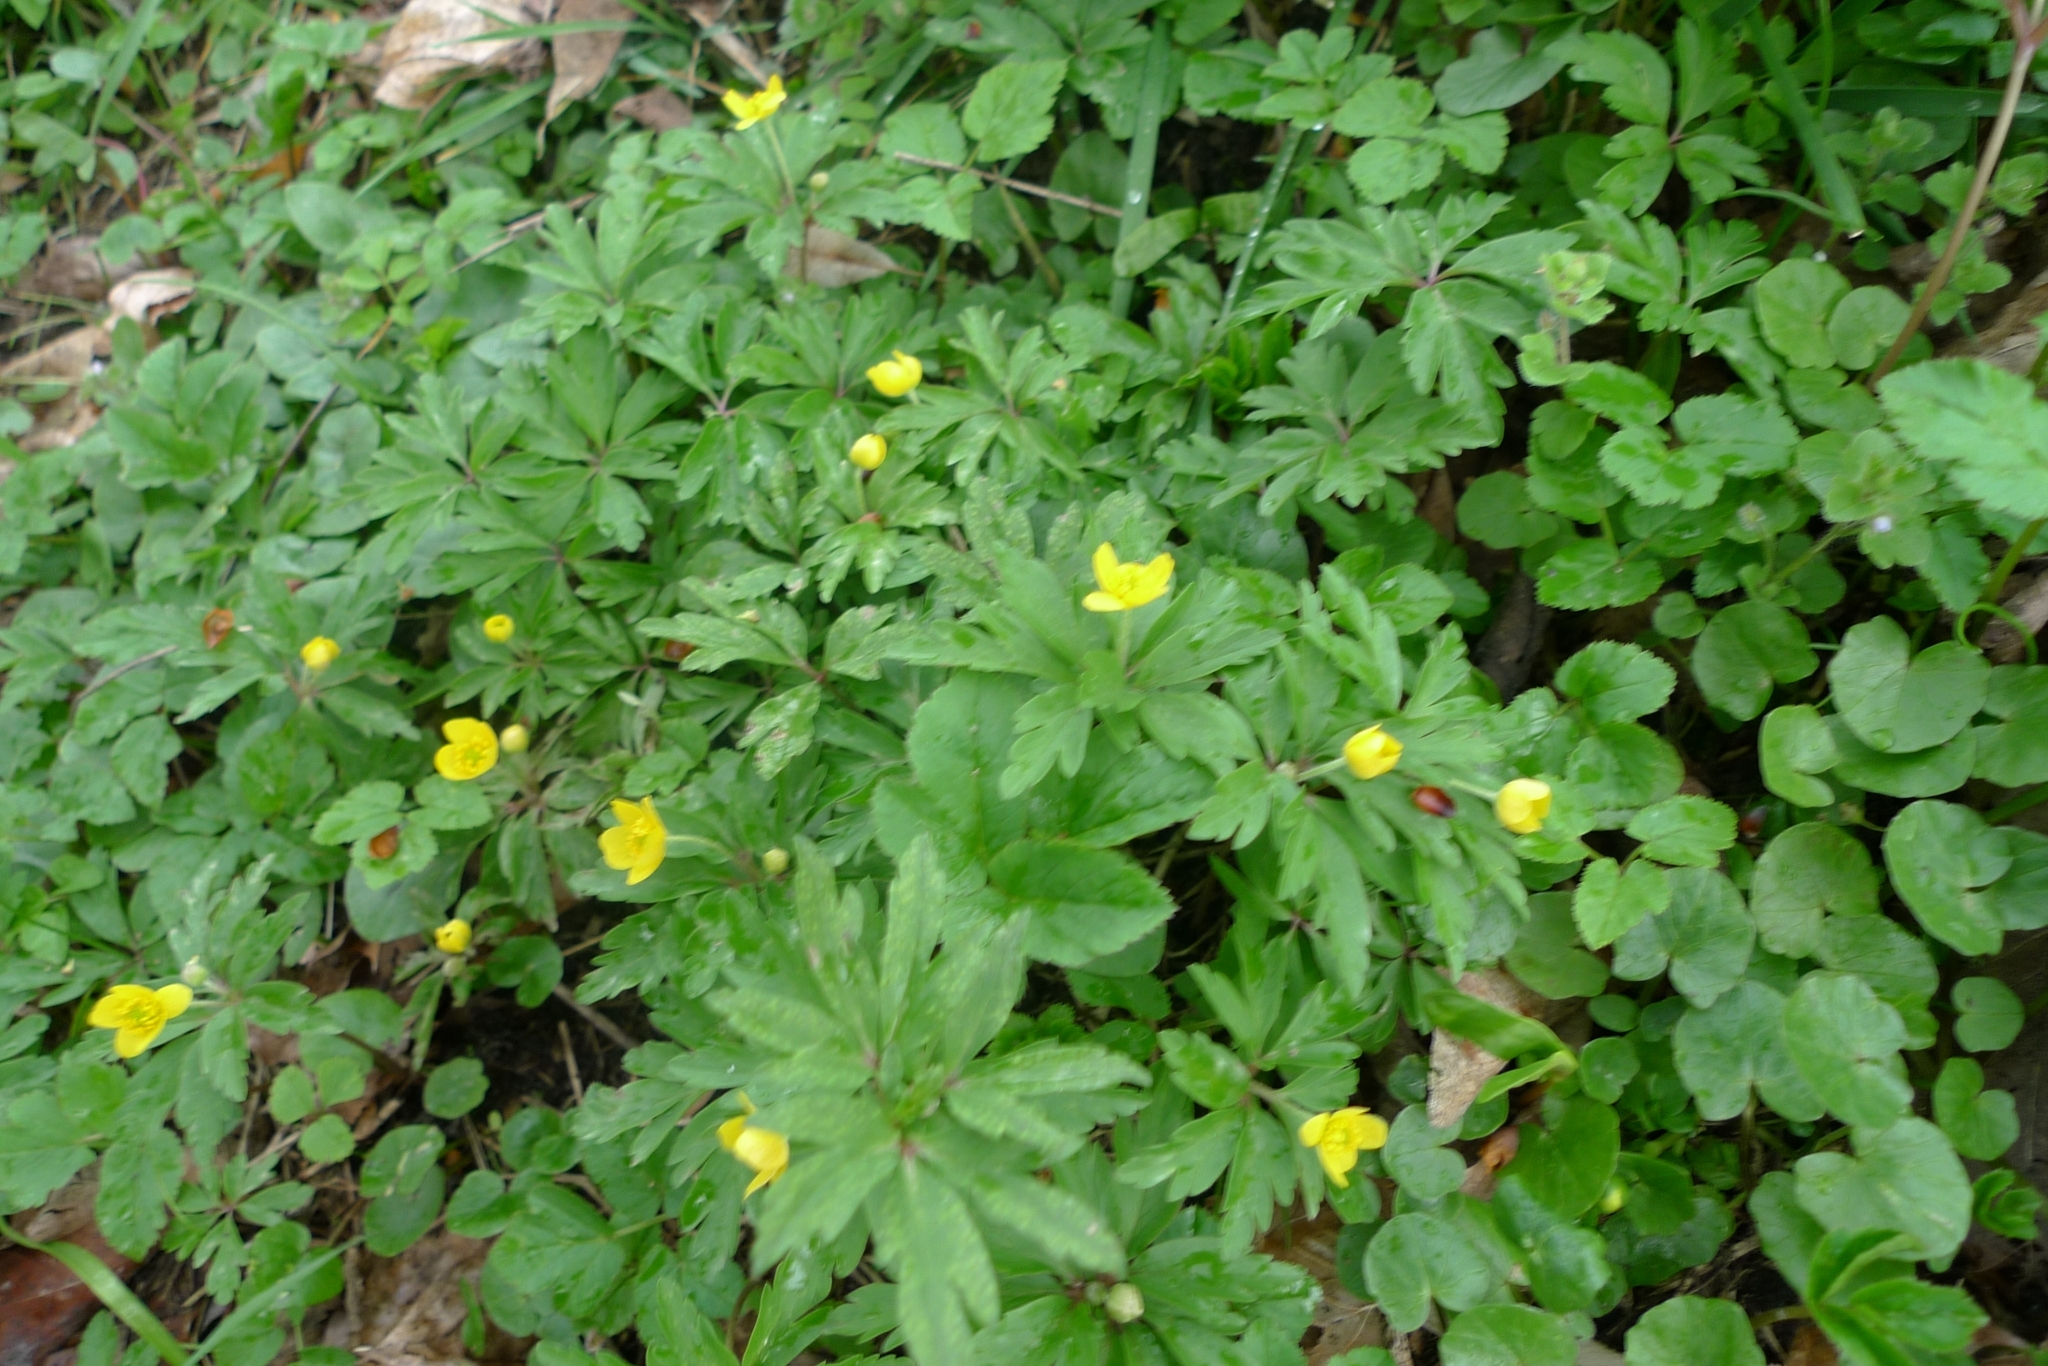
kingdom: Plantae
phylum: Tracheophyta
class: Magnoliopsida
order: Ranunculales
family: Ranunculaceae
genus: Anemone
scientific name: Anemone ranunculoides
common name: Yellow anemone
